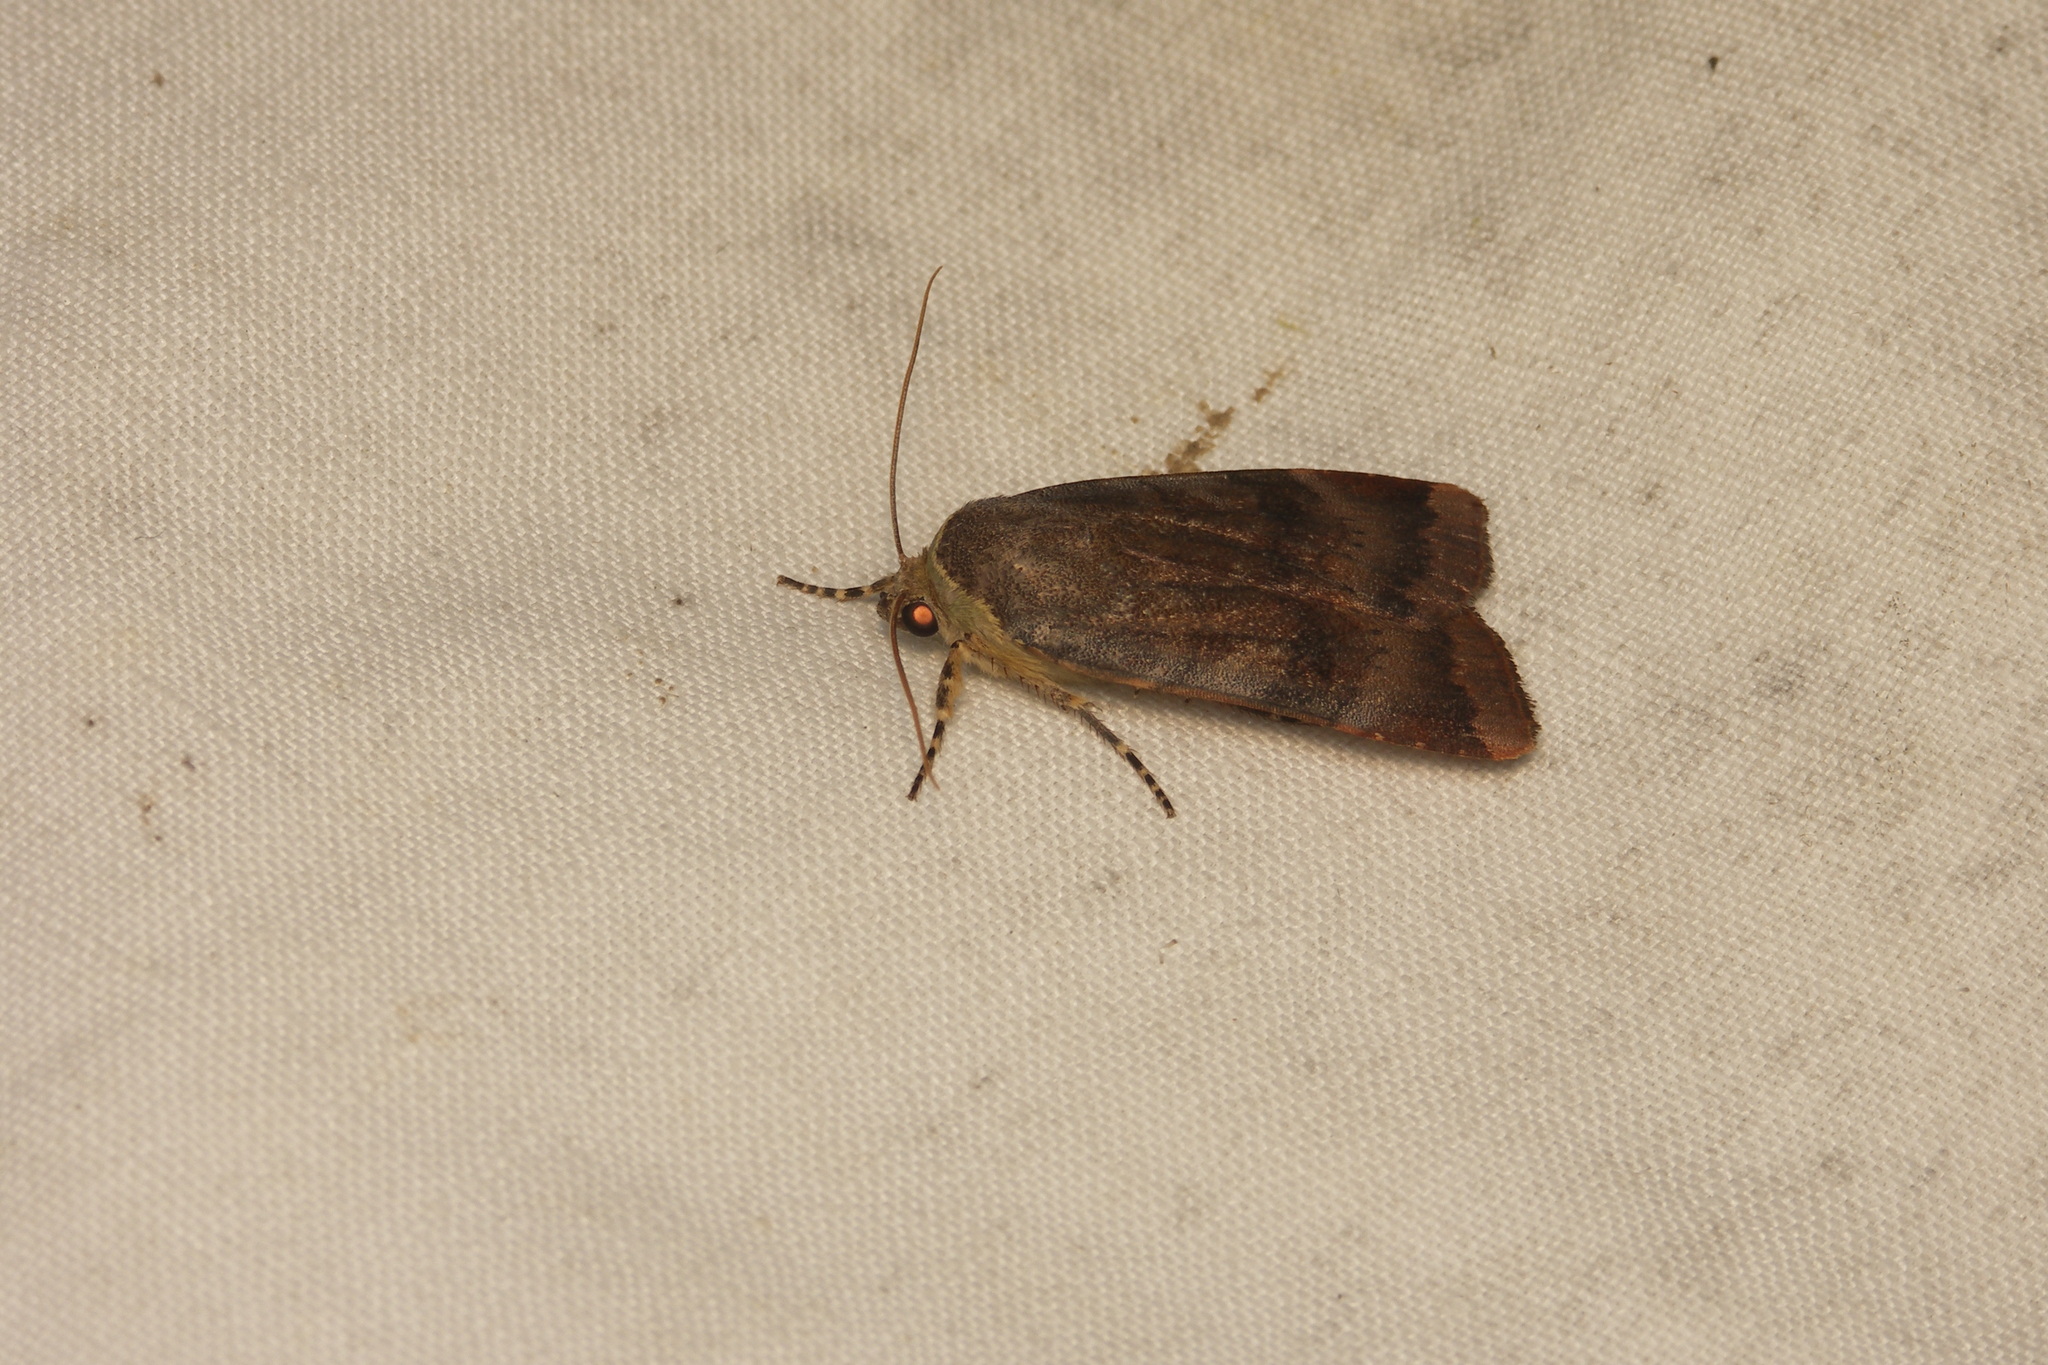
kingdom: Animalia
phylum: Arthropoda
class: Insecta
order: Lepidoptera
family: Noctuidae
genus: Noctua
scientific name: Noctua janthe
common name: Lesser broad-bordered yellow underwing
